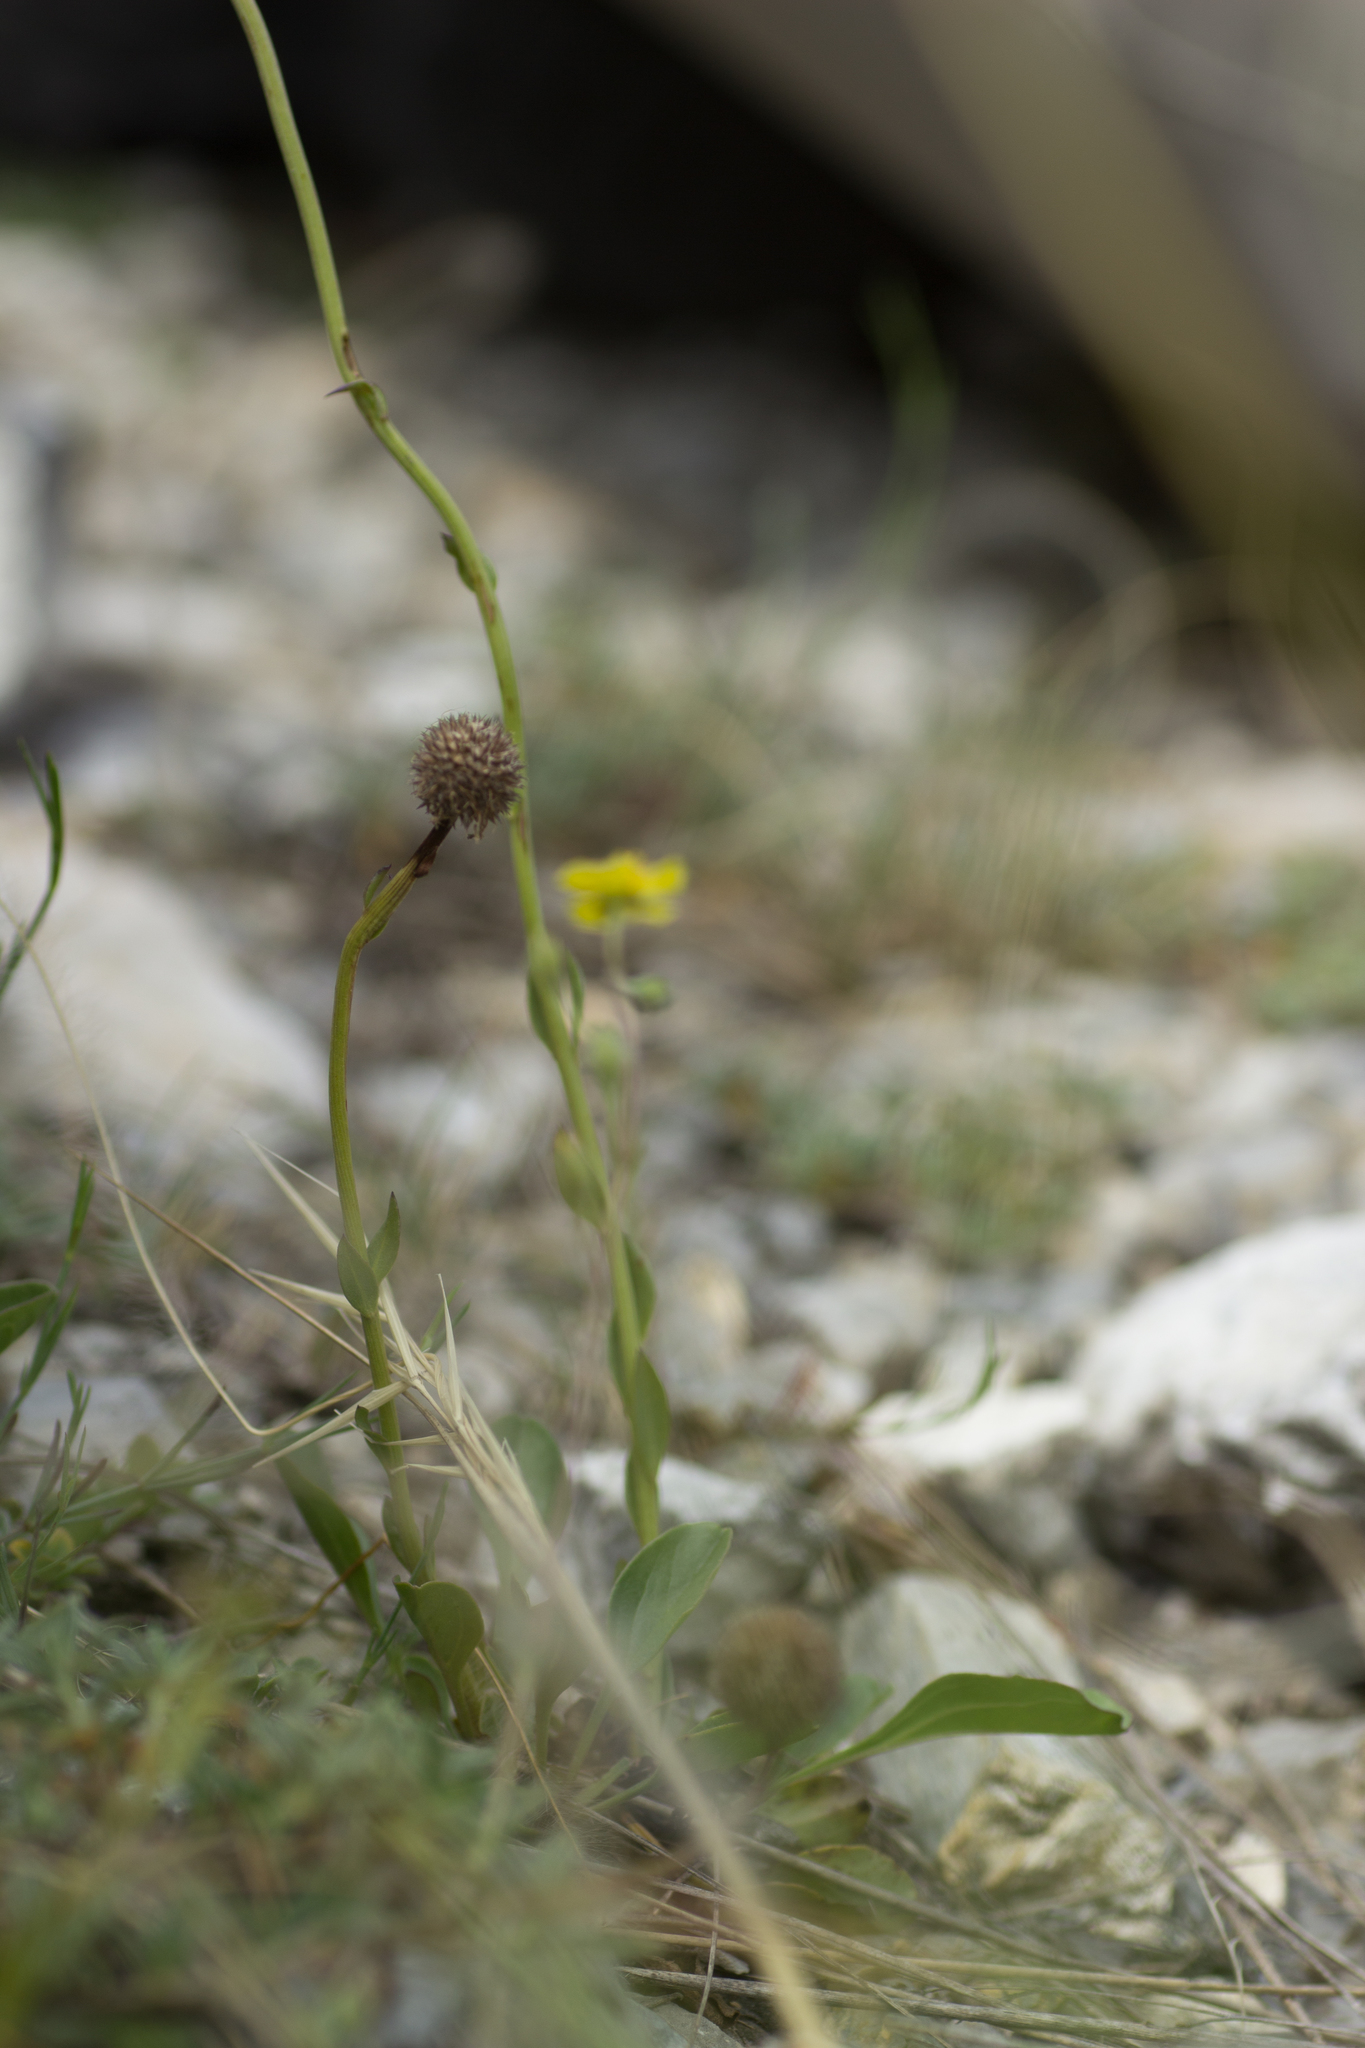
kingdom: Plantae
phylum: Tracheophyta
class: Magnoliopsida
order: Lamiales
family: Plantaginaceae
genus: Globularia
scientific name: Globularia bisnagarica
